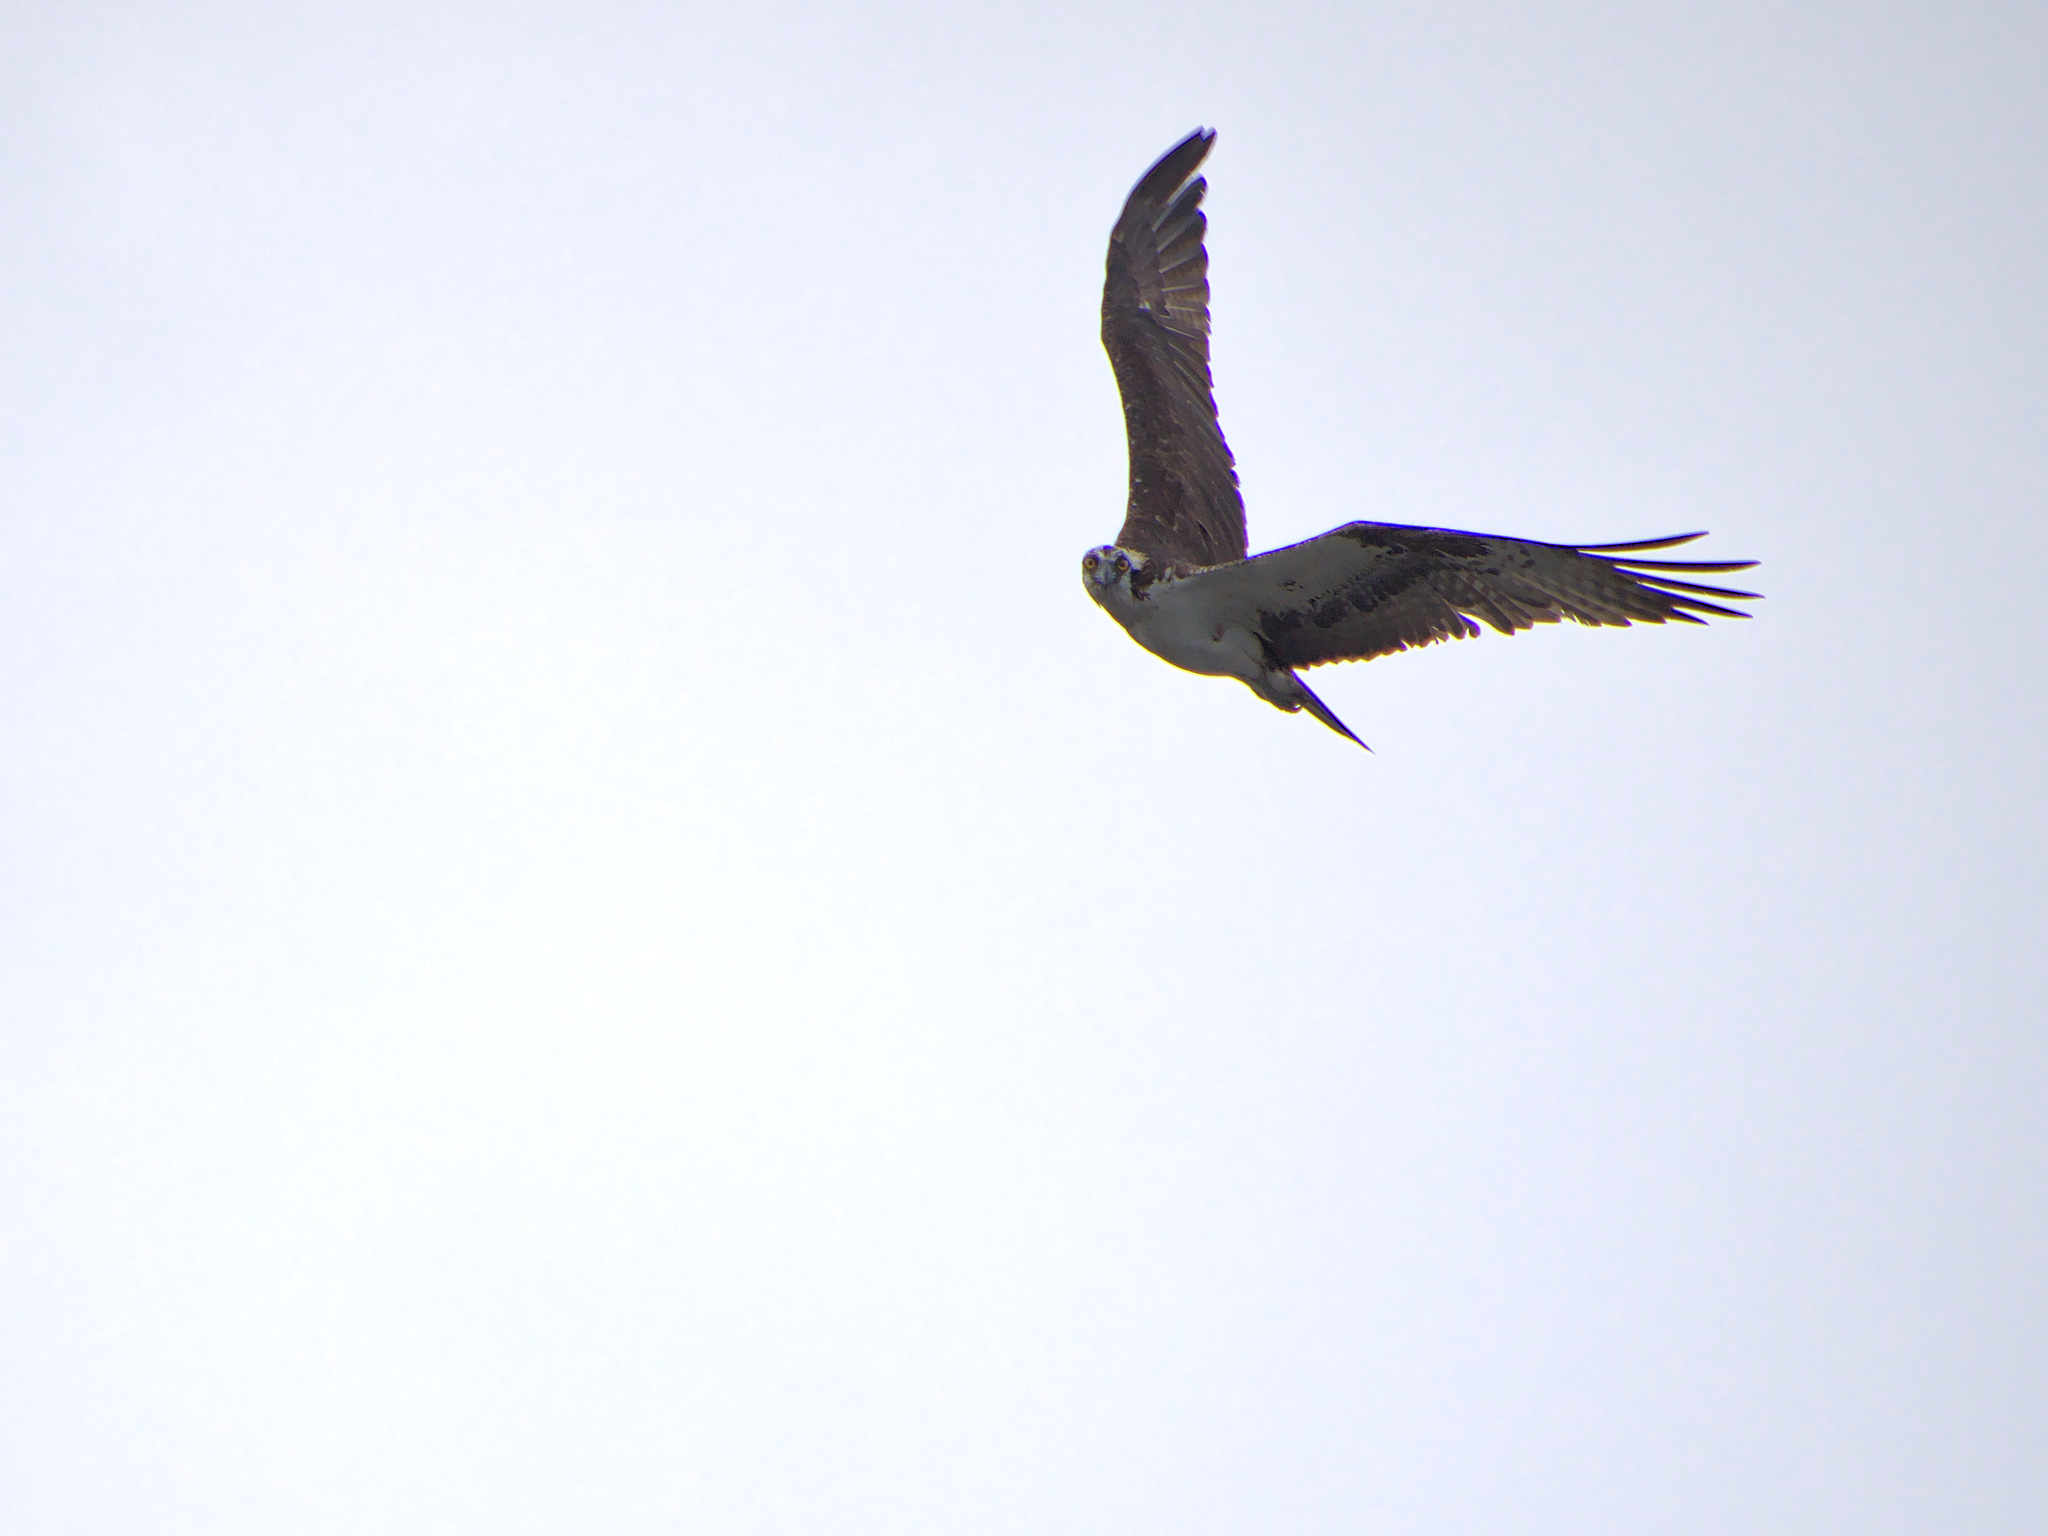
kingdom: Animalia
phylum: Chordata
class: Aves
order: Accipitriformes
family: Pandionidae
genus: Pandion
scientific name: Pandion haliaetus
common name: Osprey
